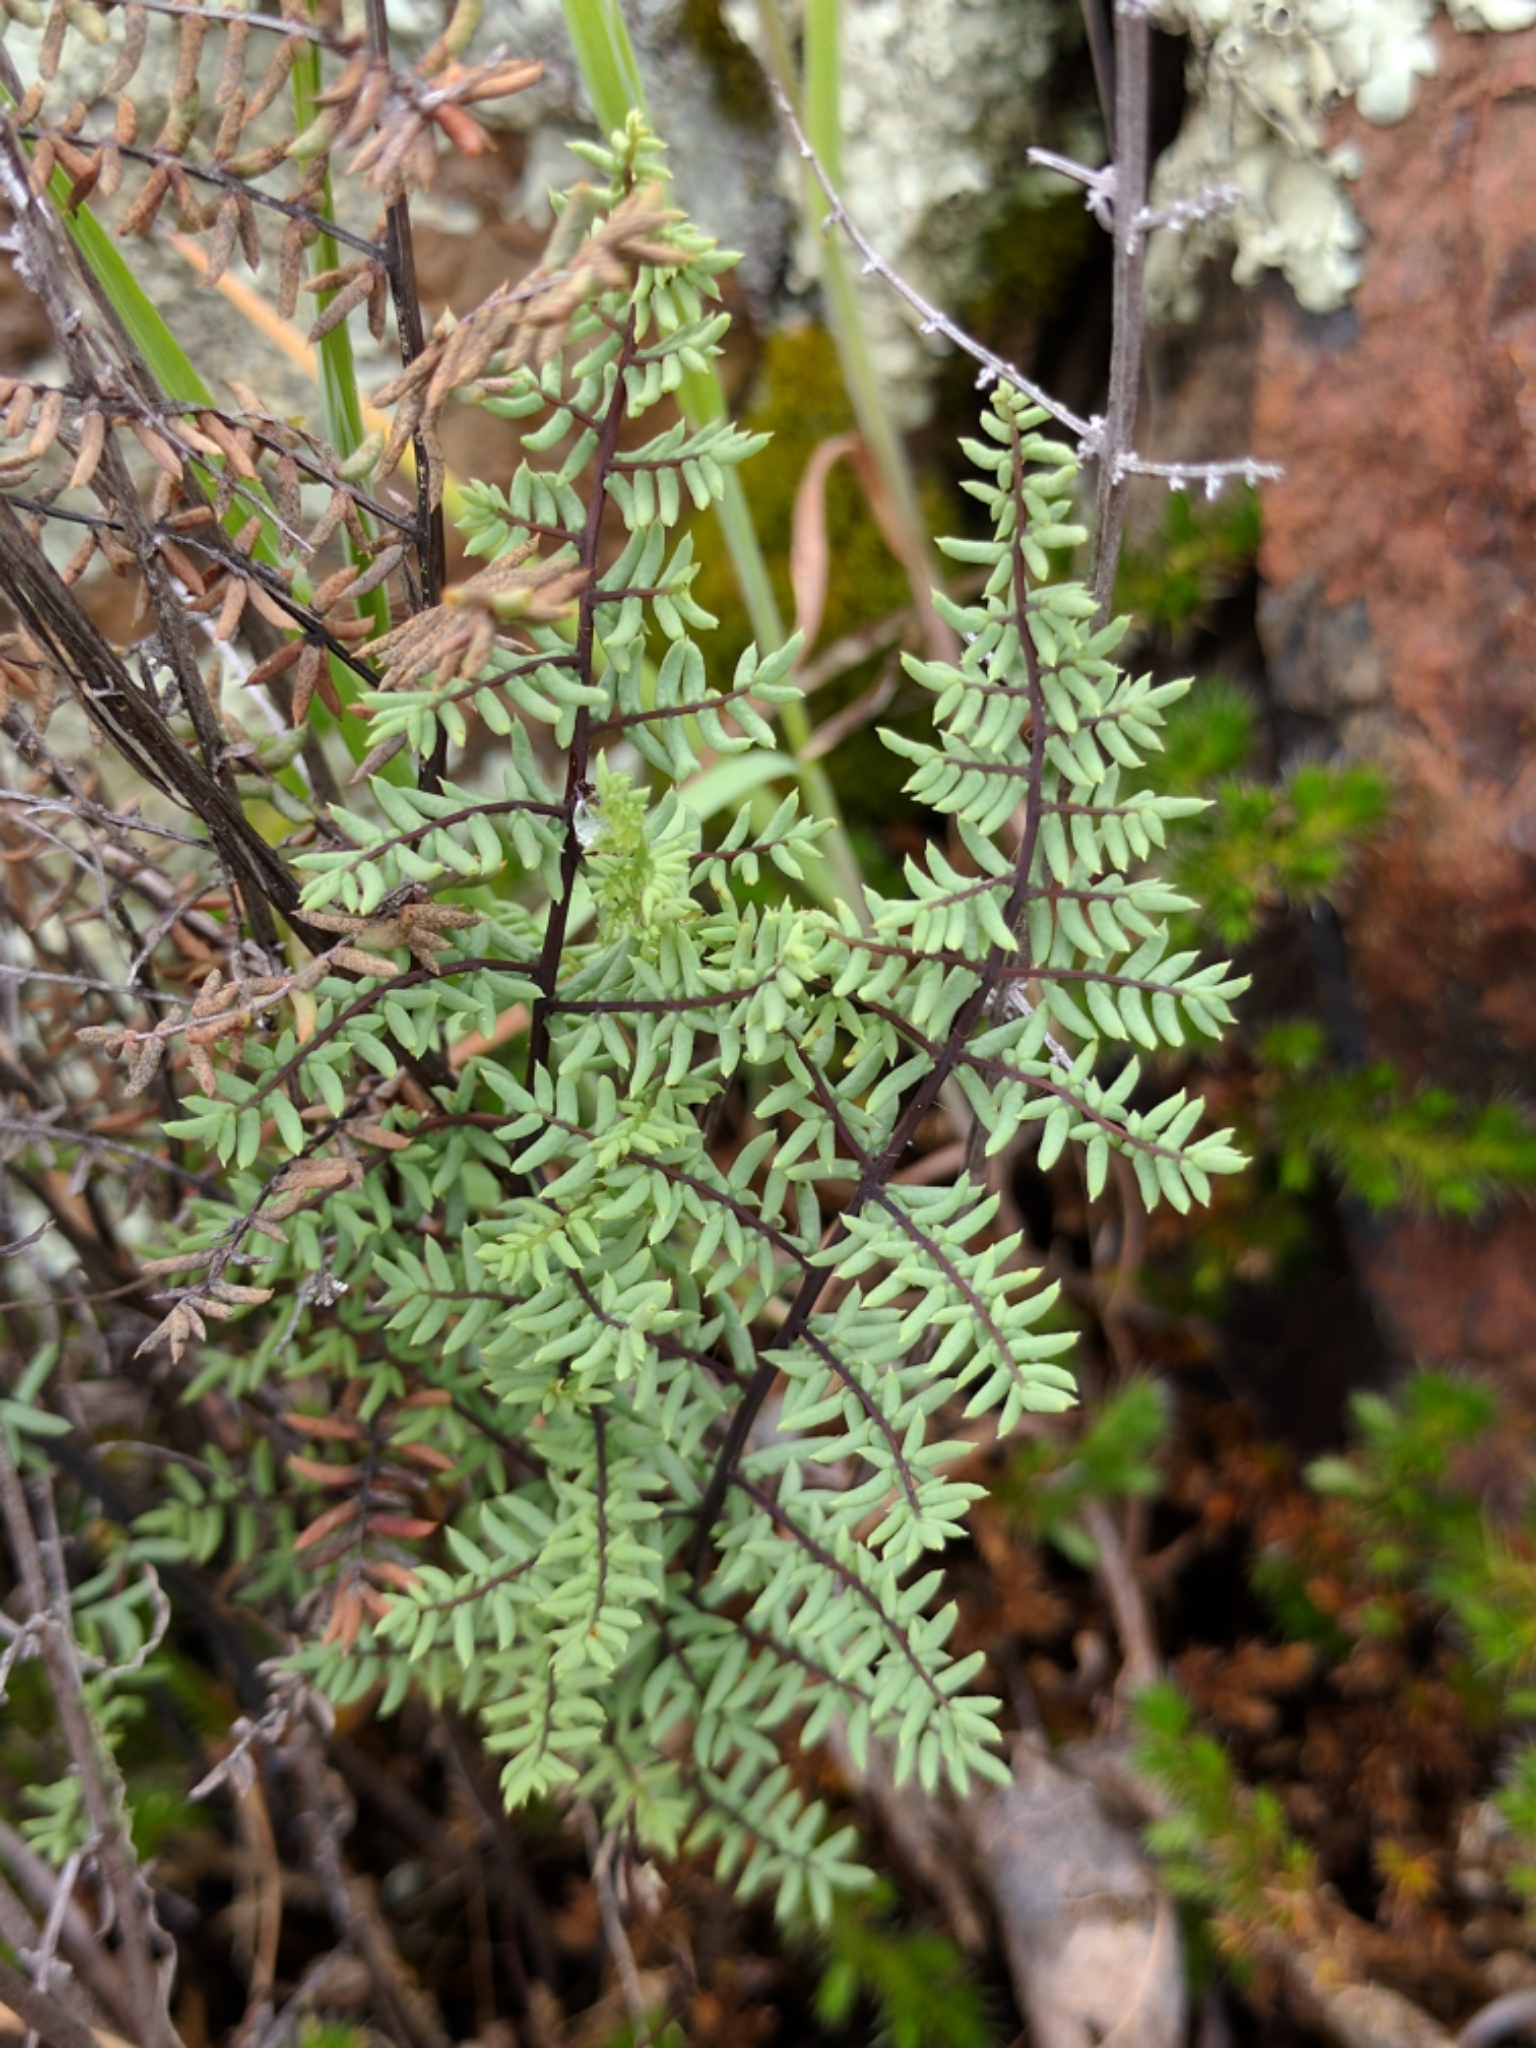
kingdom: Plantae
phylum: Tracheophyta
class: Polypodiopsida
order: Polypodiales
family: Pteridaceae
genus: Pellaea
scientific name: Pellaea mucronata
